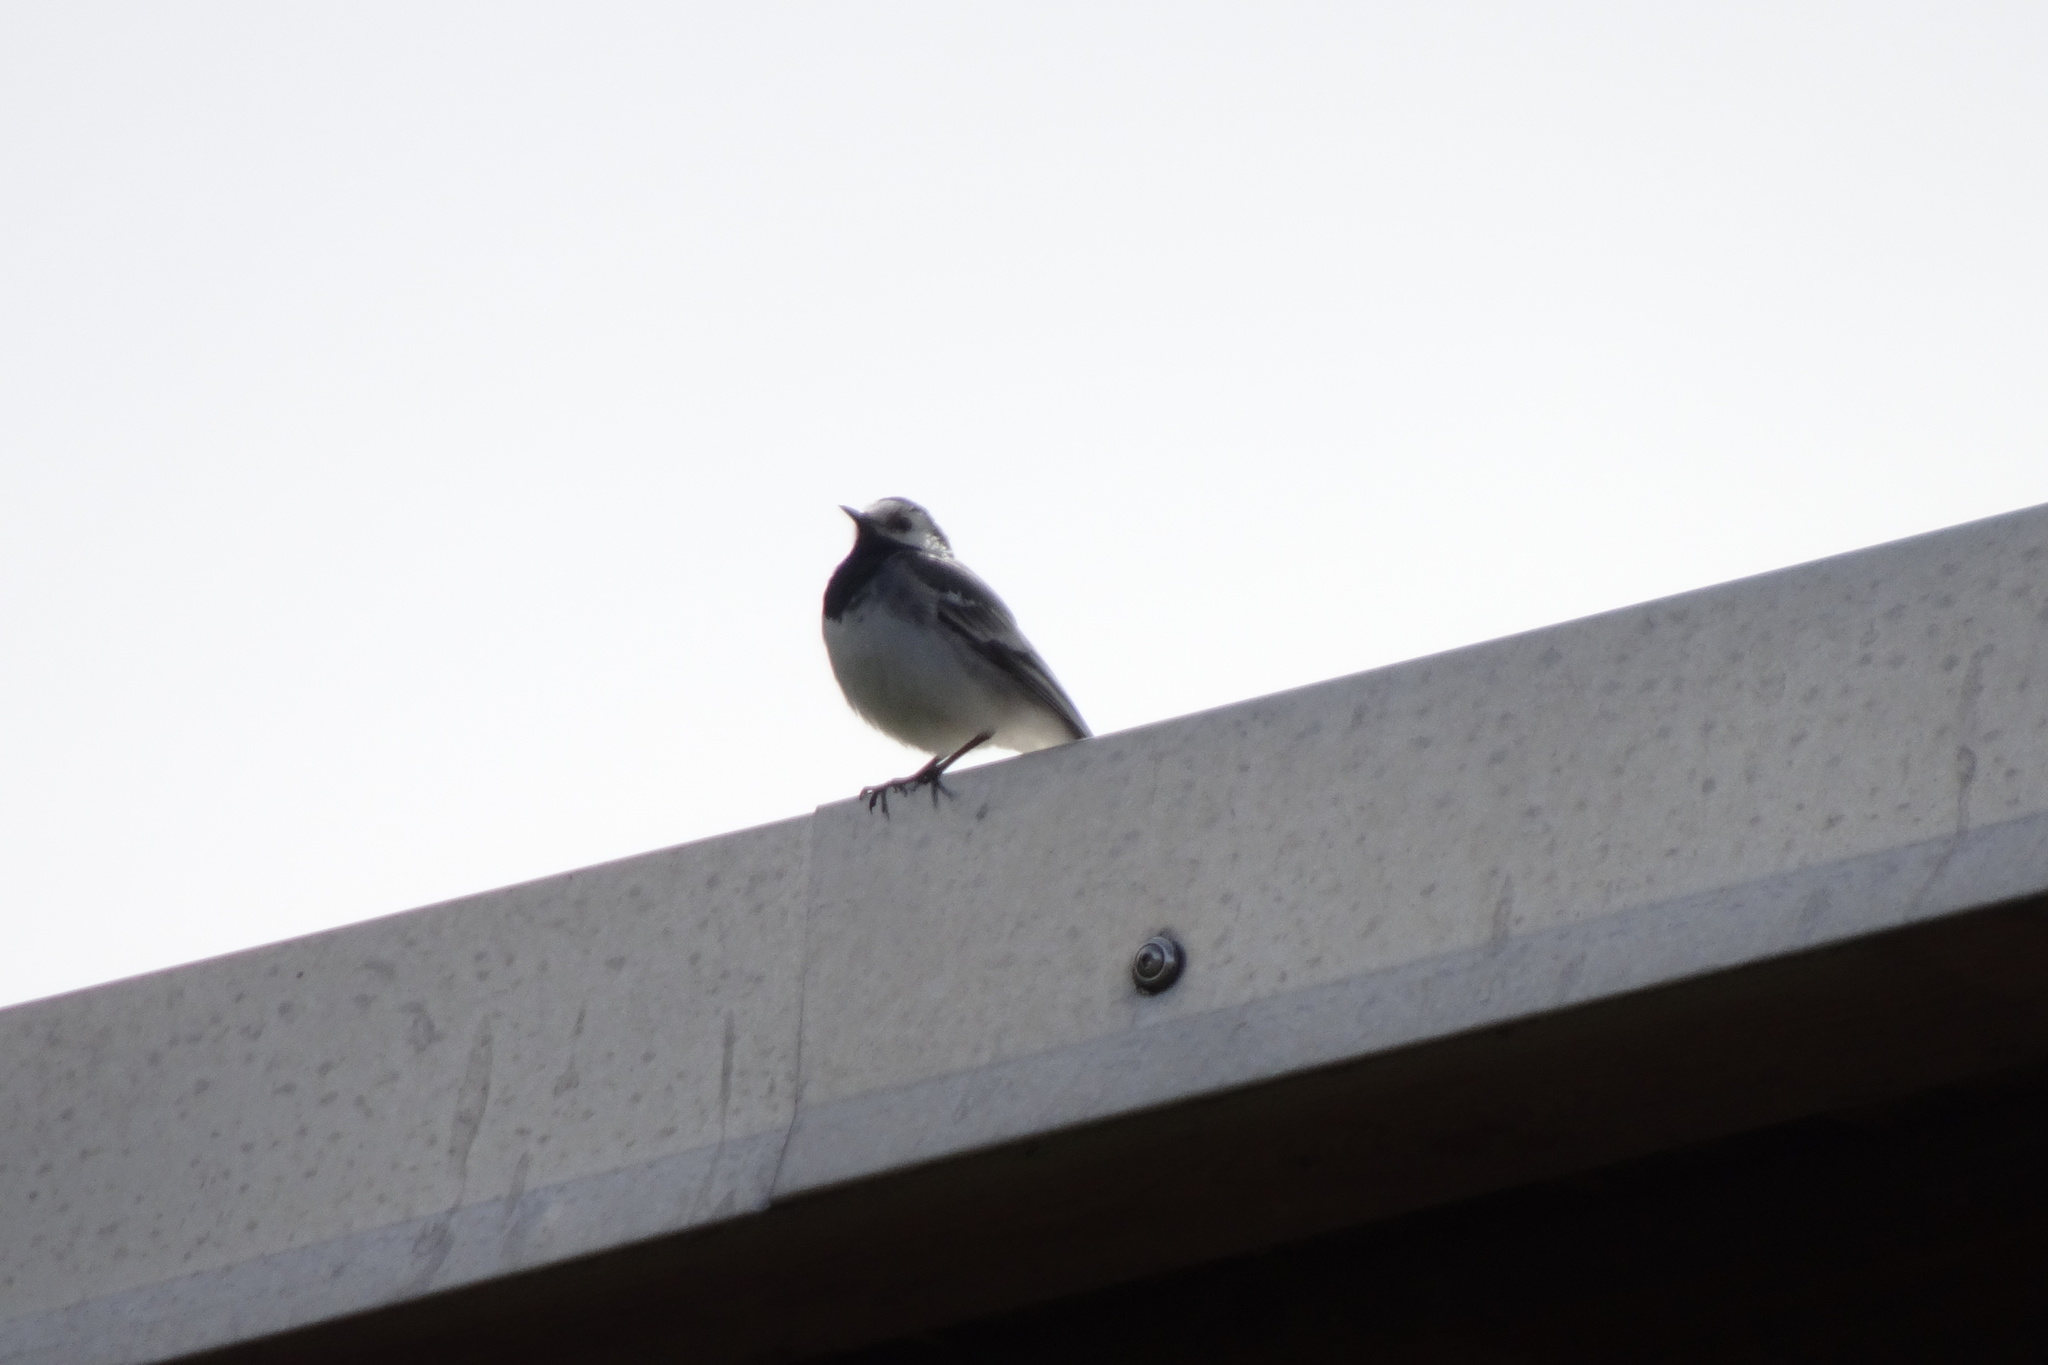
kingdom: Animalia
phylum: Chordata
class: Aves
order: Passeriformes
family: Motacillidae
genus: Motacilla
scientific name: Motacilla alba
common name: White wagtail
